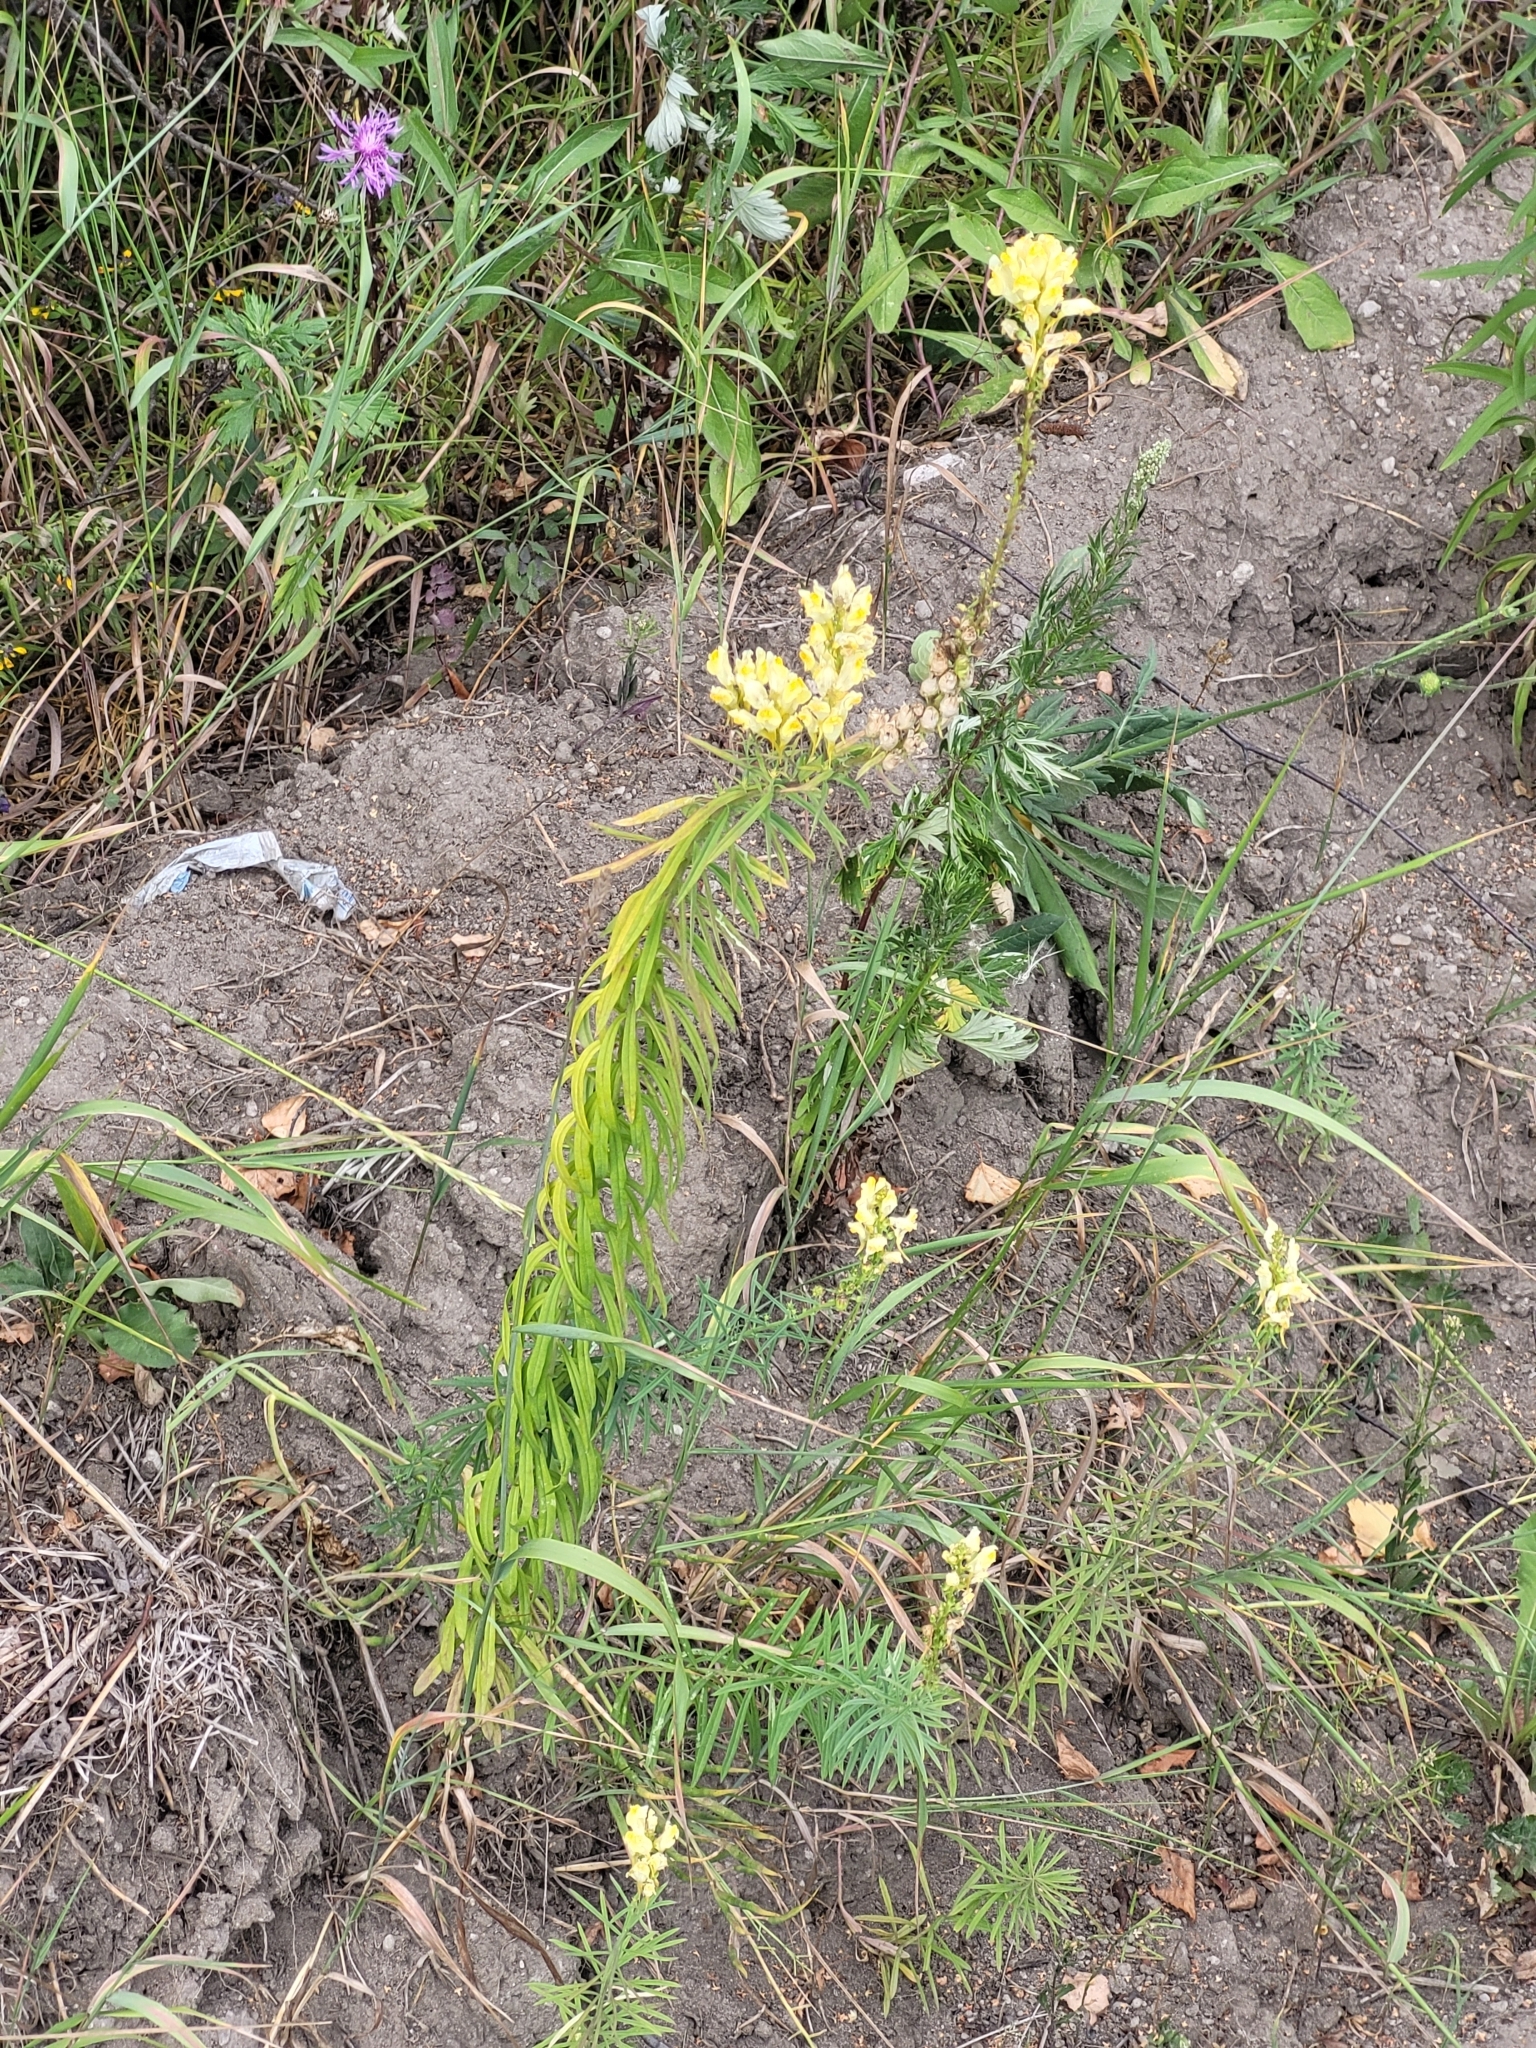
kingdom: Plantae
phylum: Tracheophyta
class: Magnoliopsida
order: Lamiales
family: Plantaginaceae
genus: Linaria
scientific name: Linaria vulgaris
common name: Butter and eggs
